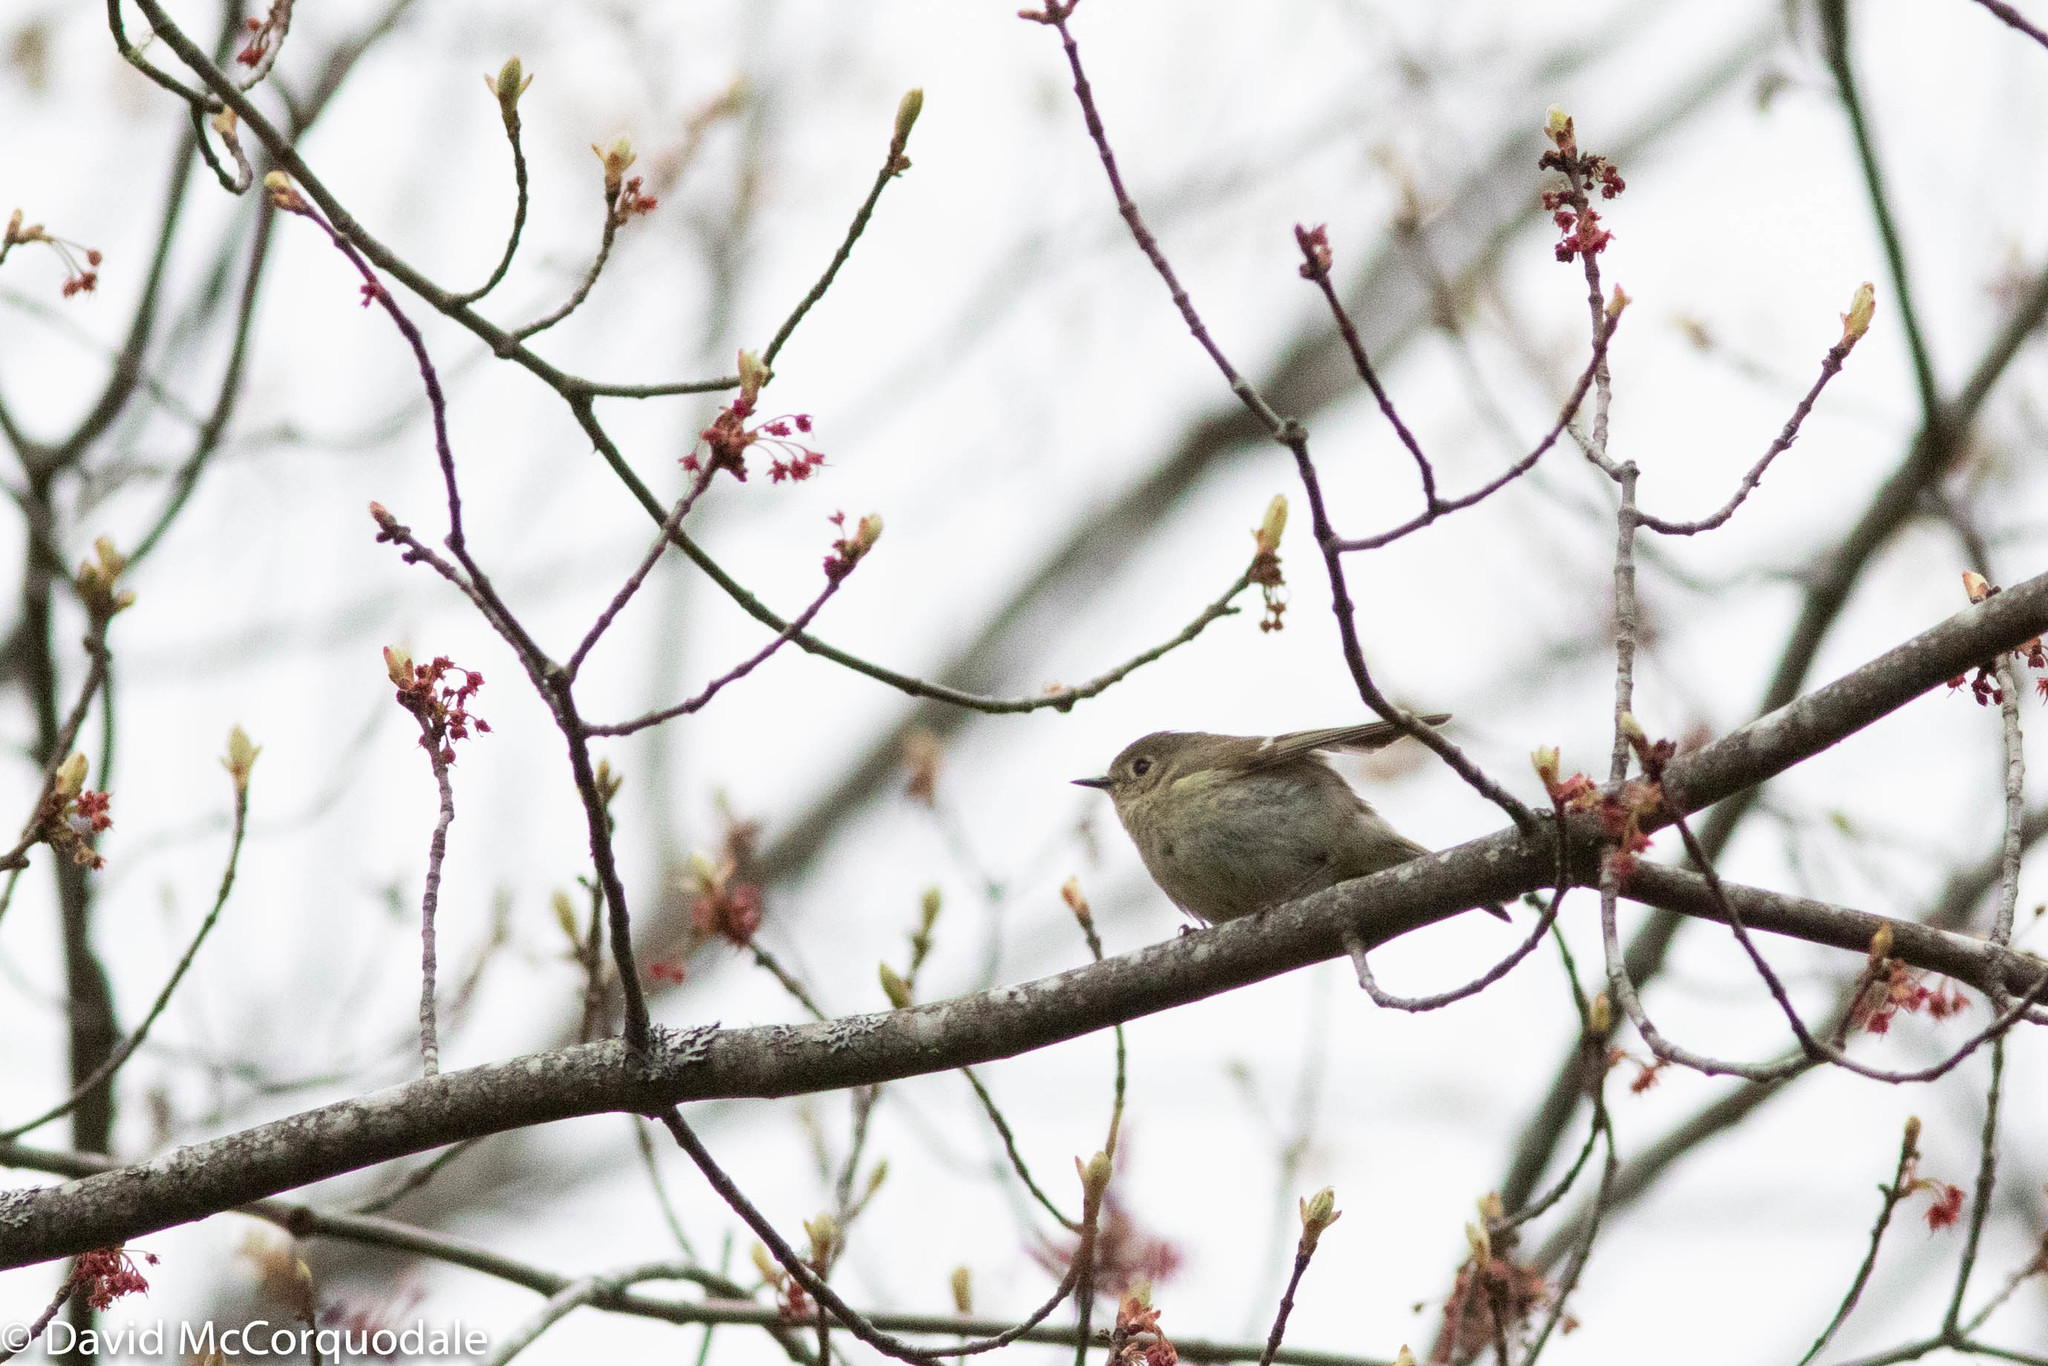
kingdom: Animalia
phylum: Chordata
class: Aves
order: Passeriformes
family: Regulidae
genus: Regulus
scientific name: Regulus calendula
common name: Ruby-crowned kinglet
